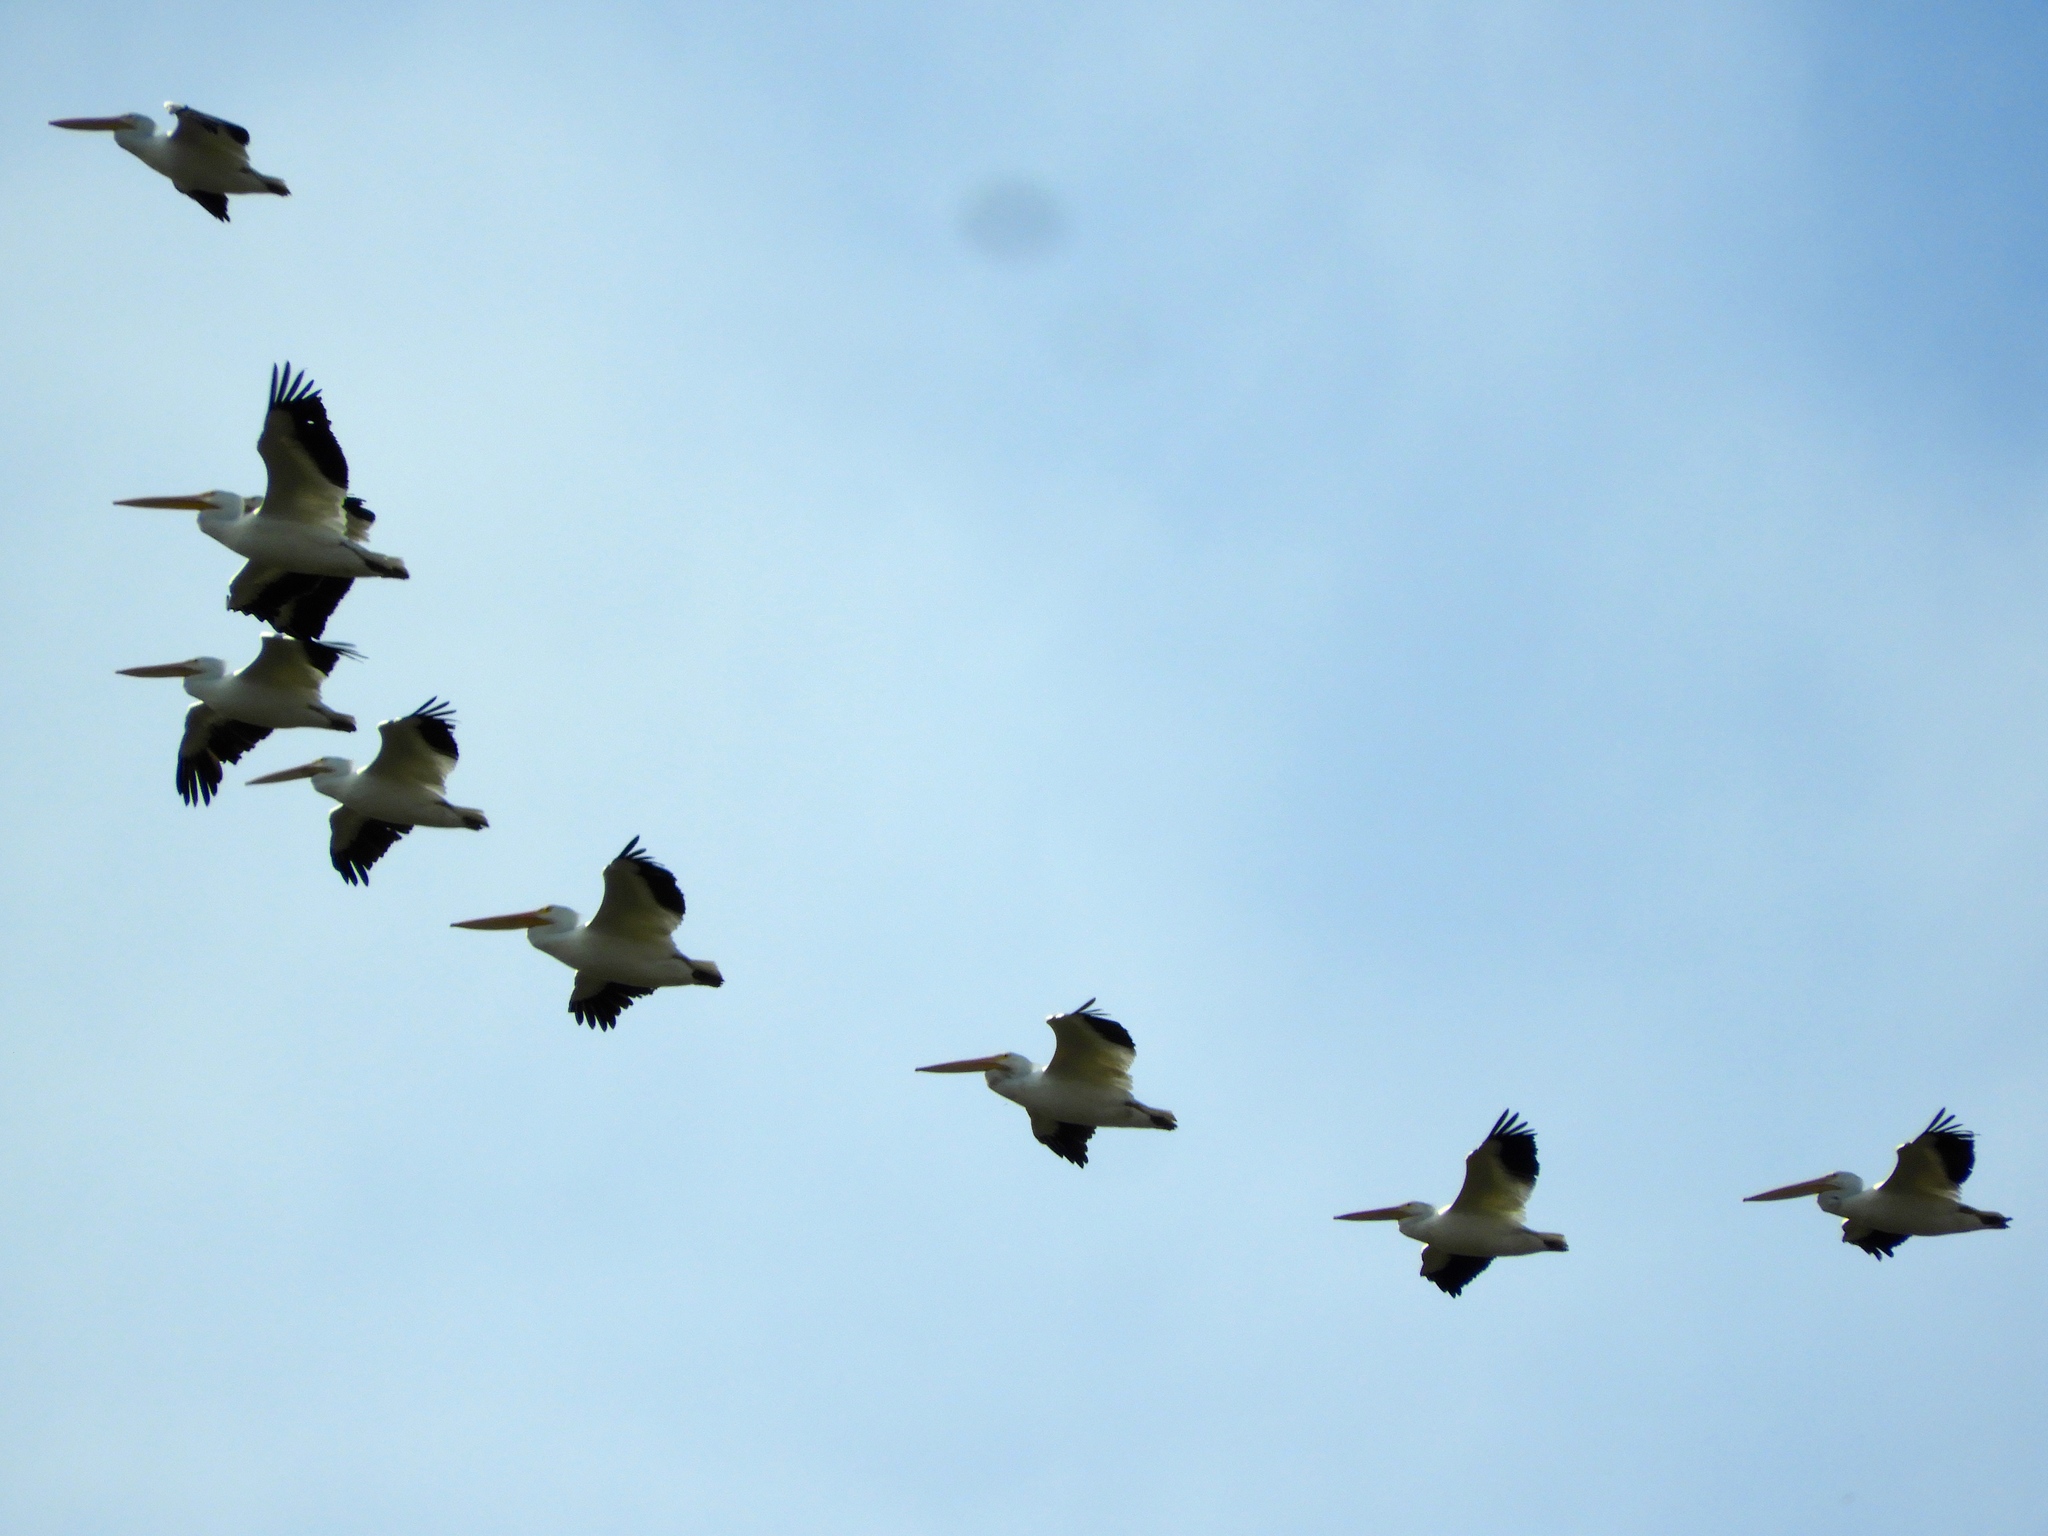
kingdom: Animalia
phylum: Chordata
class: Aves
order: Pelecaniformes
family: Pelecanidae
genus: Pelecanus
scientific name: Pelecanus erythrorhynchos
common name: American white pelican
